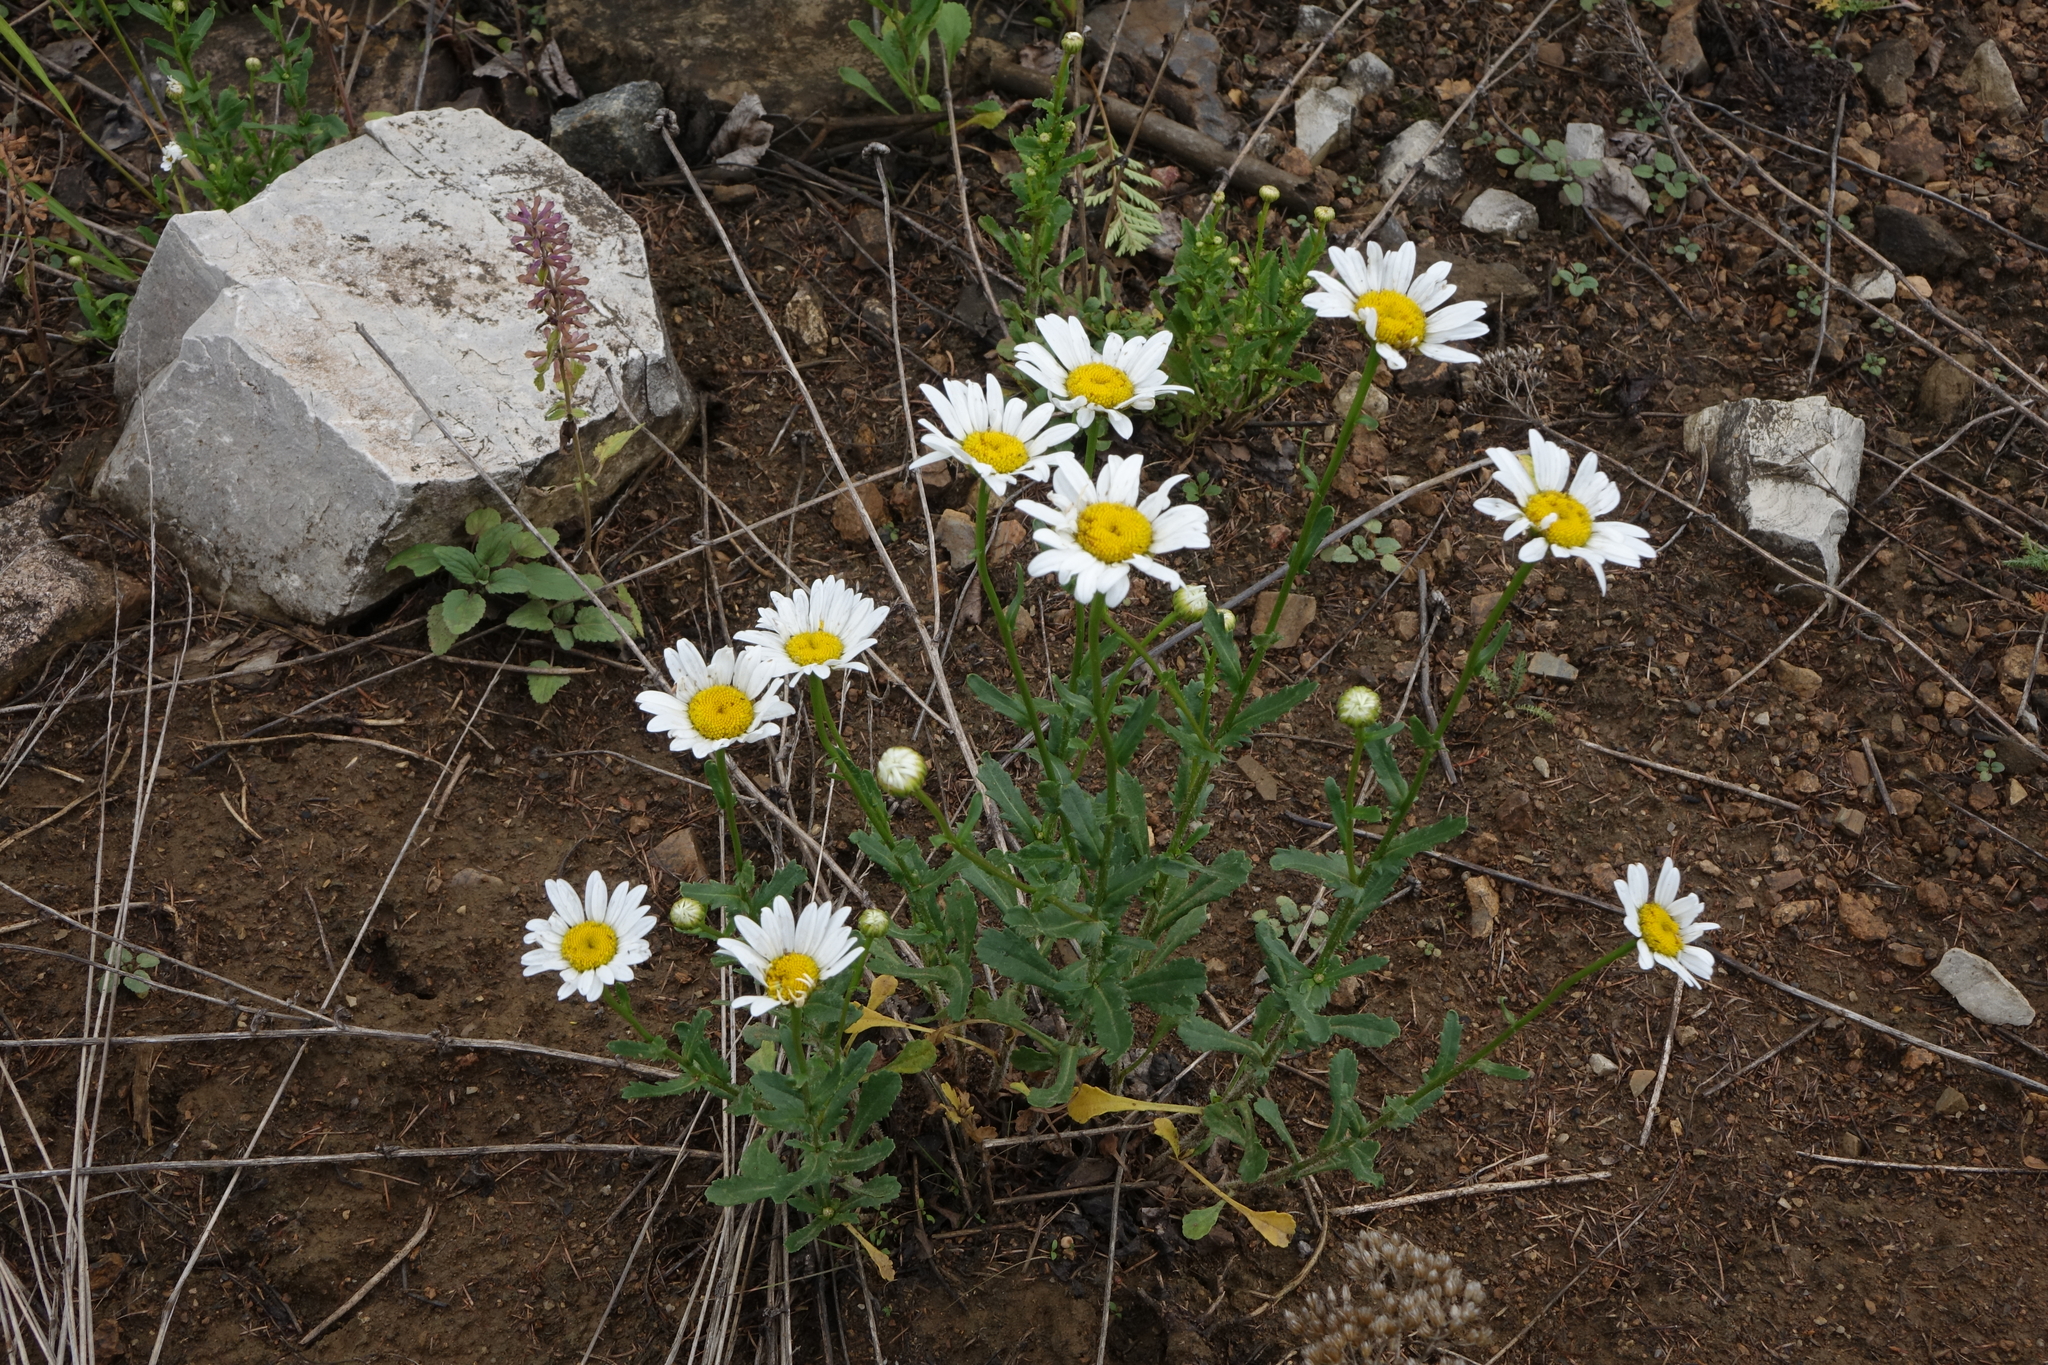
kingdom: Plantae
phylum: Tracheophyta
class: Magnoliopsida
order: Asterales
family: Asteraceae
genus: Leucanthemum
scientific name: Leucanthemum ircutianum
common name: Daisy
